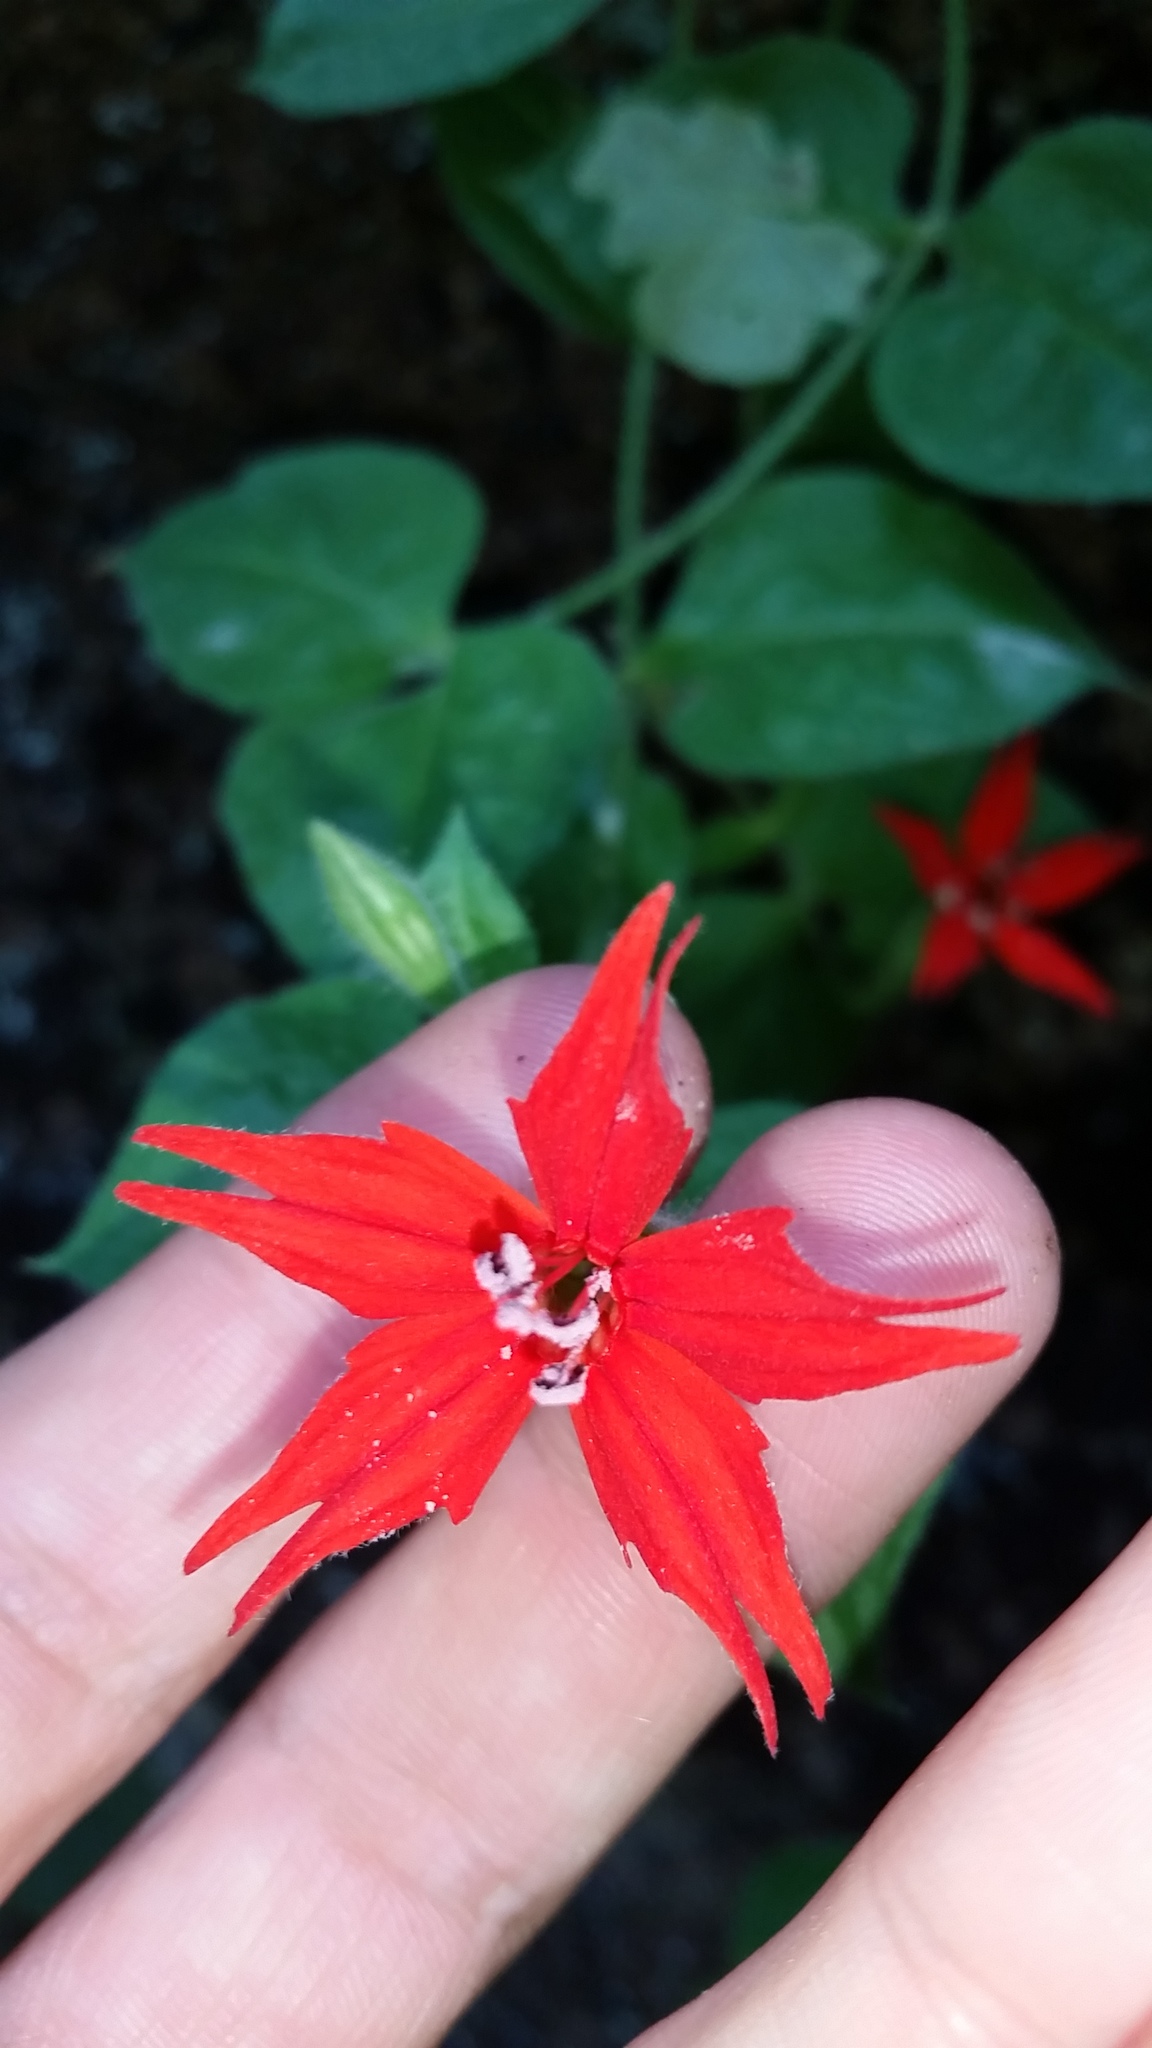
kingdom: Plantae
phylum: Tracheophyta
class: Magnoliopsida
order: Caryophyllales
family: Caryophyllaceae
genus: Silene
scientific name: Silene rotundifolia
